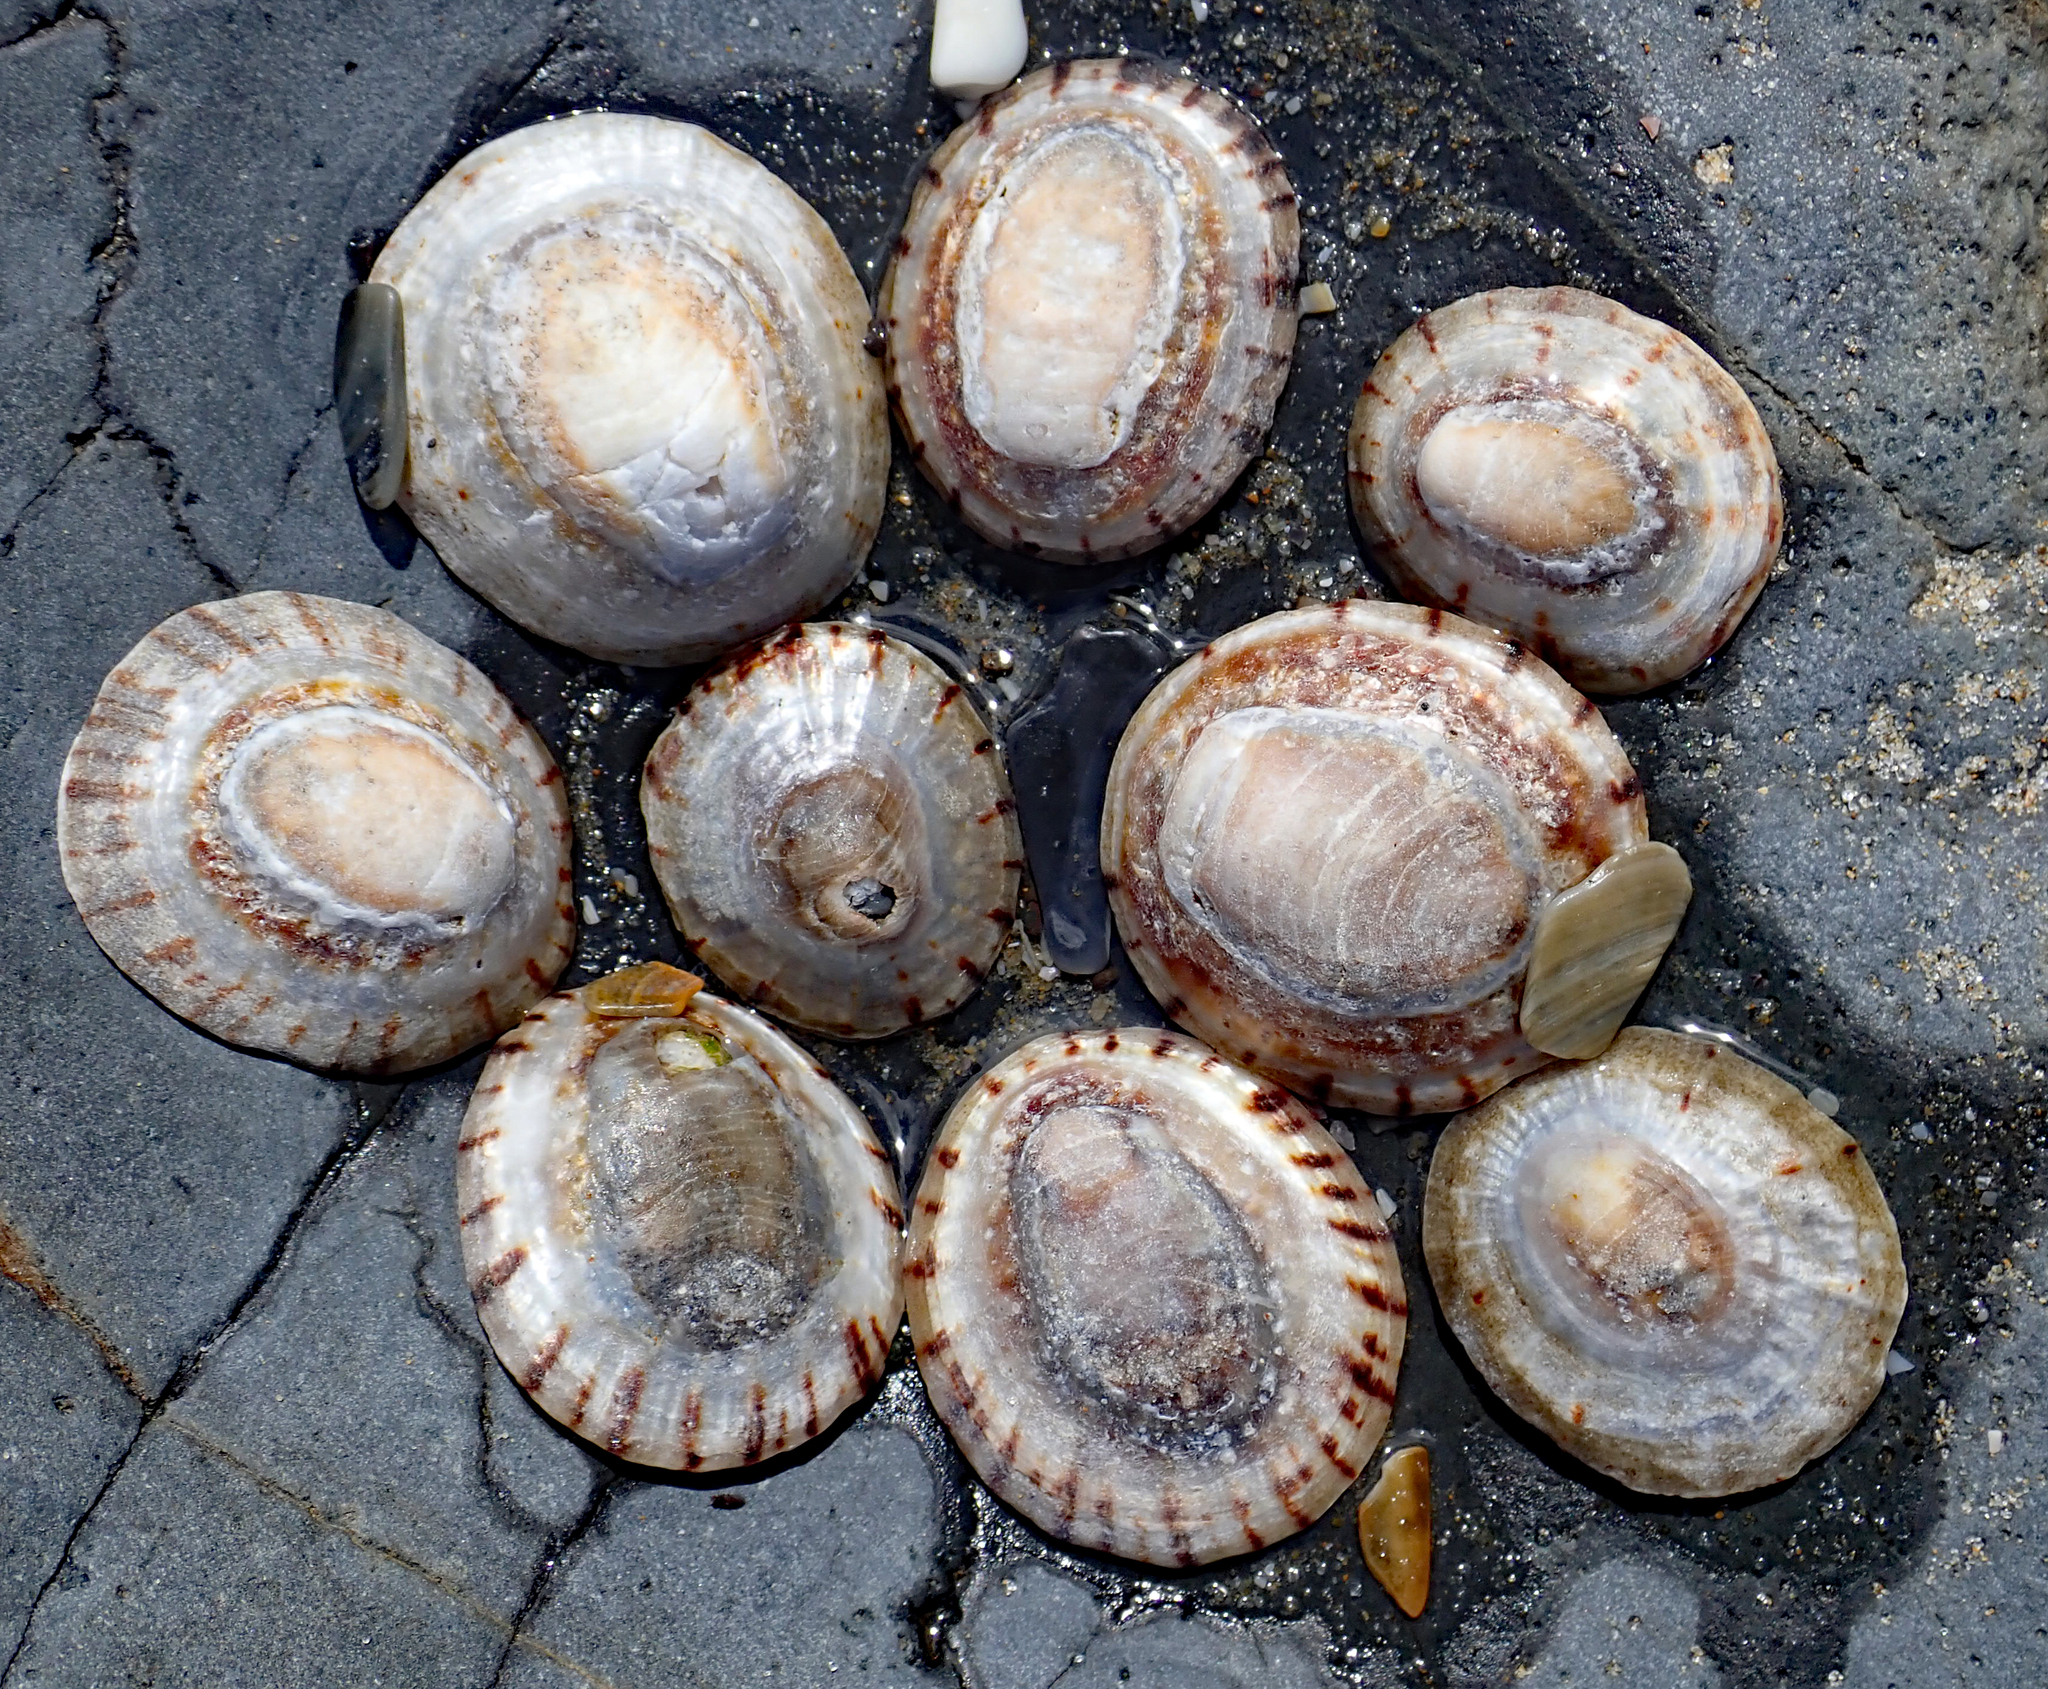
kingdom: Animalia
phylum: Mollusca
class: Gastropoda
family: Nacellidae
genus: Cellana
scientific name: Cellana radians
